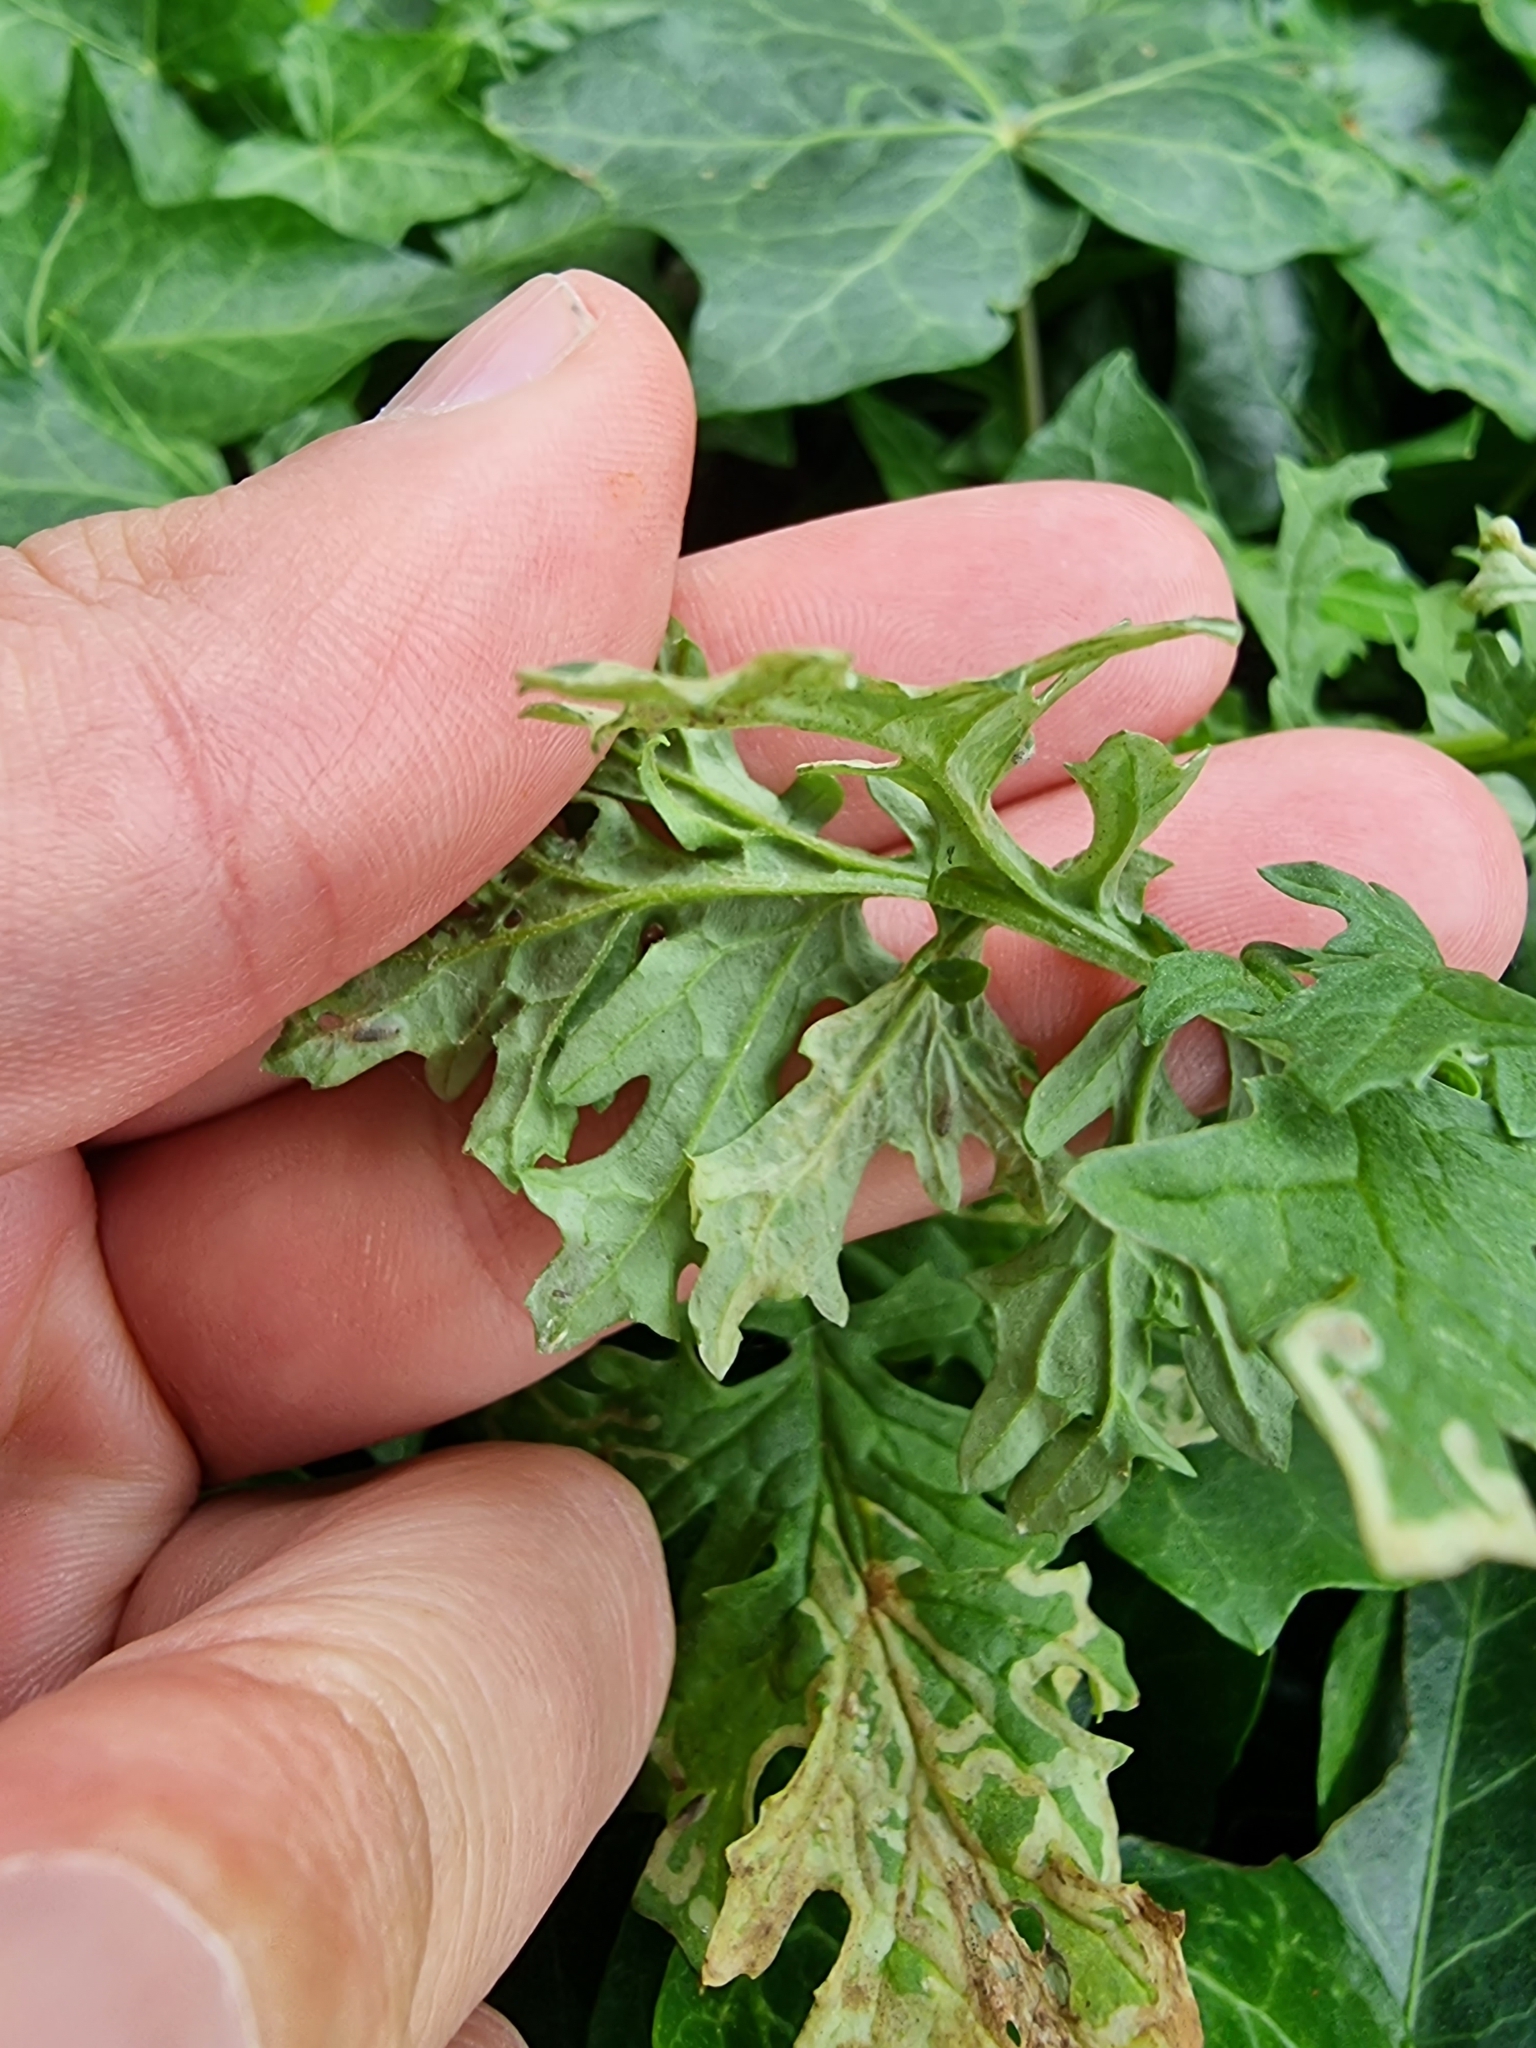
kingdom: Plantae
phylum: Tracheophyta
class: Magnoliopsida
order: Asterales
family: Asteraceae
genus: Jacobaea
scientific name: Jacobaea vulgaris
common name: Stinking willie
